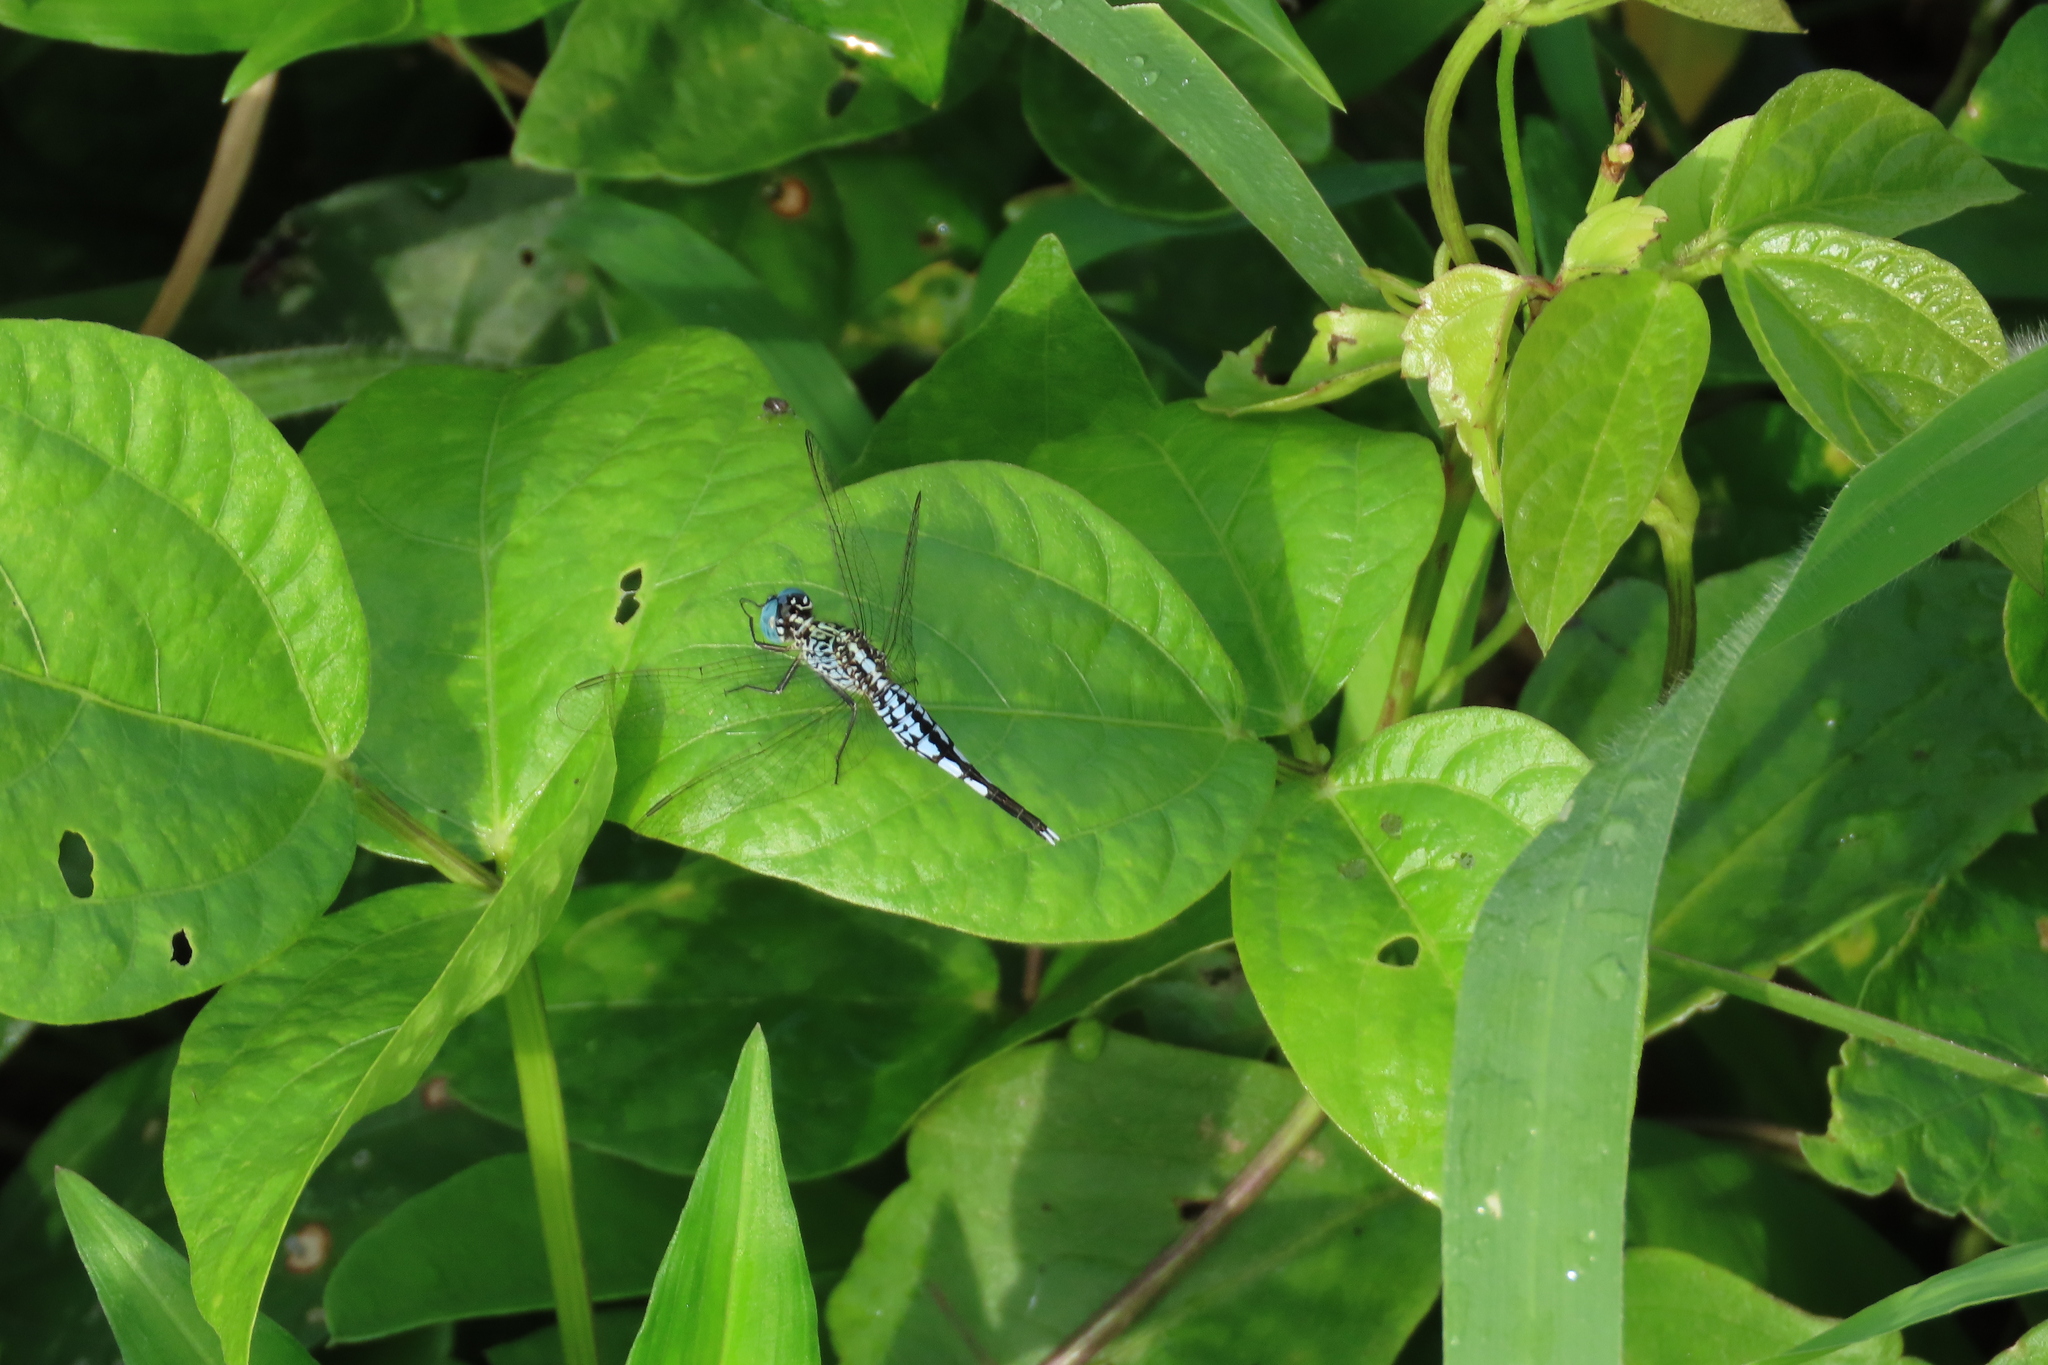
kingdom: Animalia
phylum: Arthropoda
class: Insecta
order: Odonata
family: Libellulidae
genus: Acisoma
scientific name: Acisoma panorpoides
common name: Asian pintail
